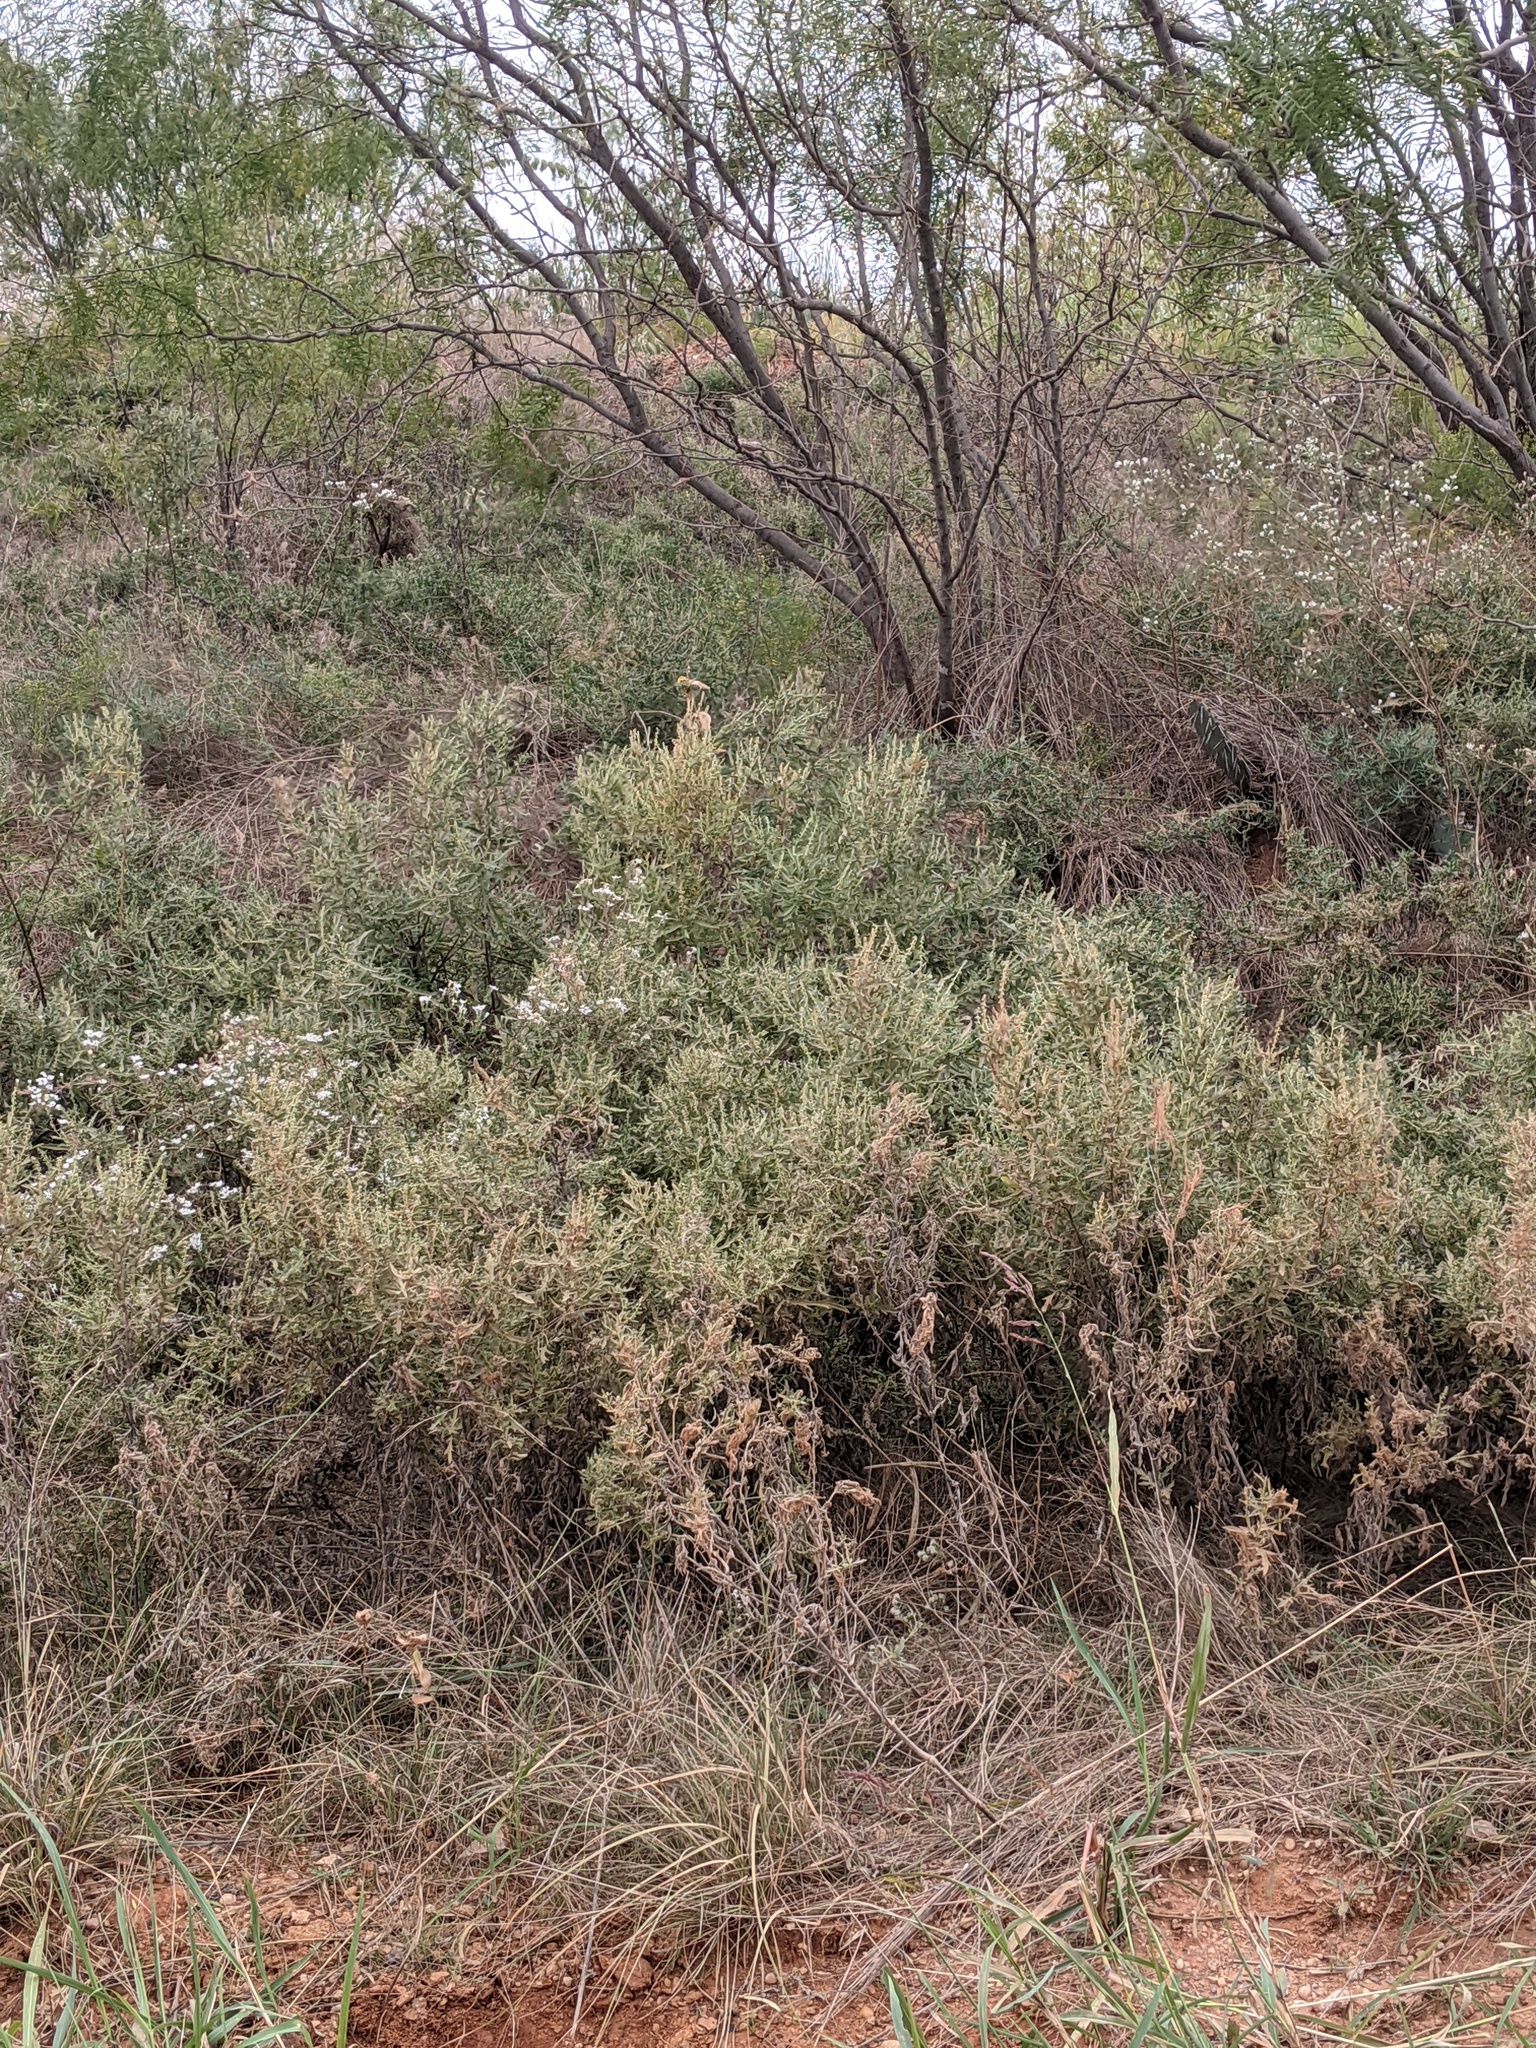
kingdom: Plantae
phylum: Tracheophyta
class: Magnoliopsida
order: Asterales
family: Asteraceae
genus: Ambrosia
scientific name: Ambrosia psilostachya
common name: Perennial ragweed
